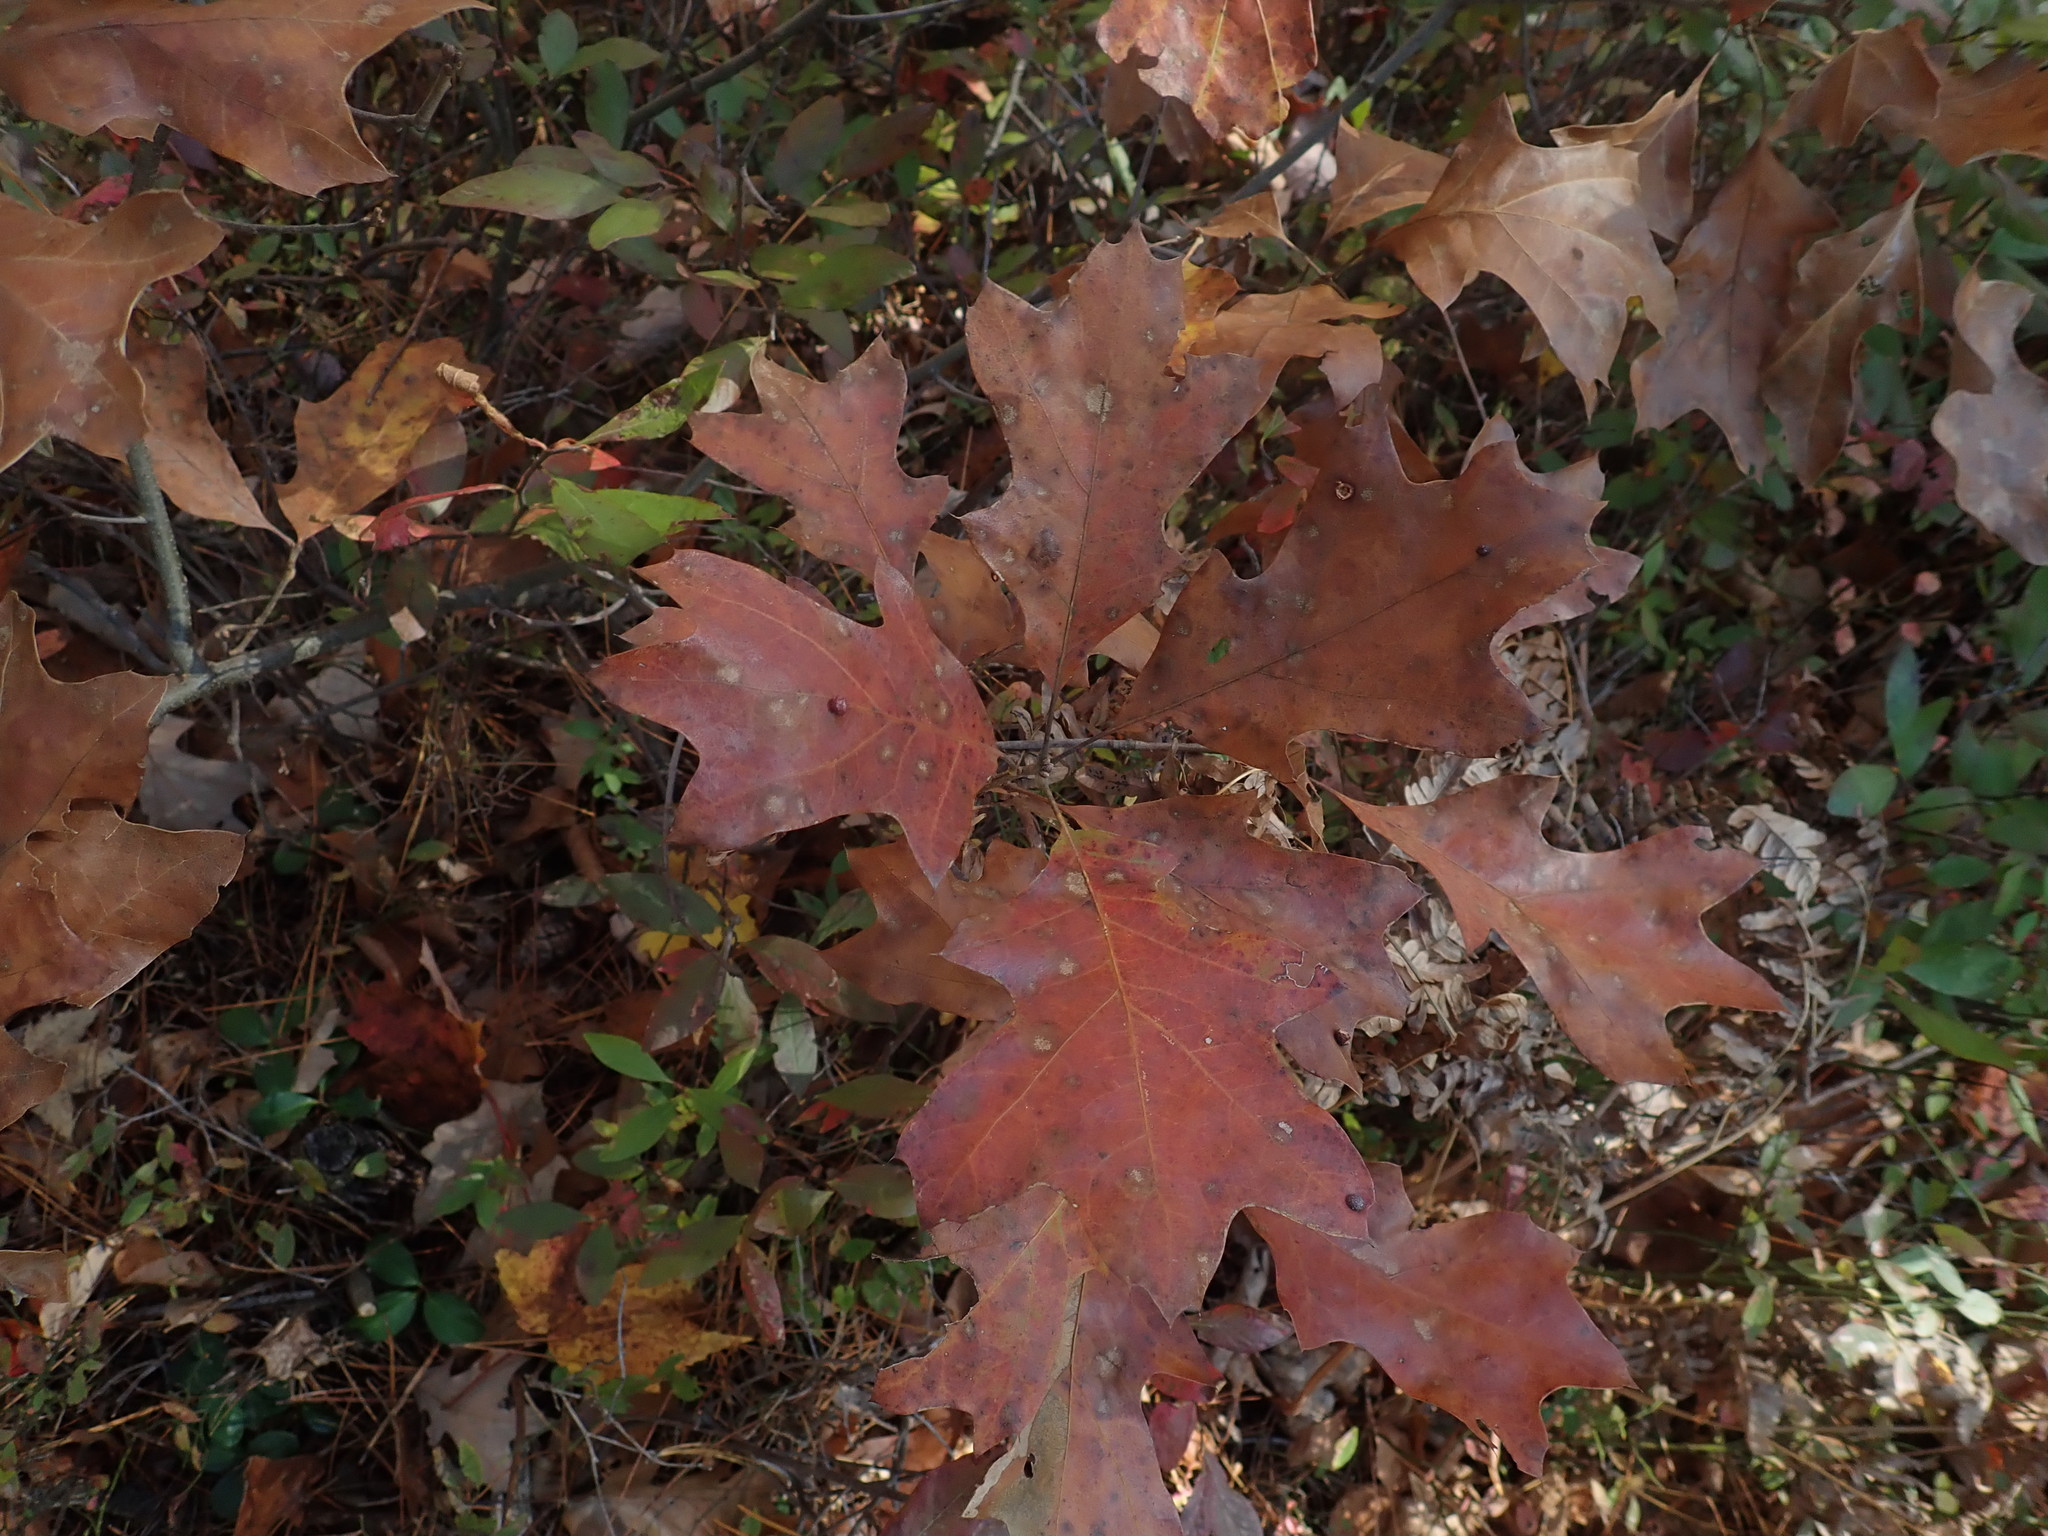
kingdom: Plantae
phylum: Tracheophyta
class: Magnoliopsida
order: Fagales
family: Fagaceae
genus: Quercus
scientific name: Quercus ilicifolia
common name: Bear oak
